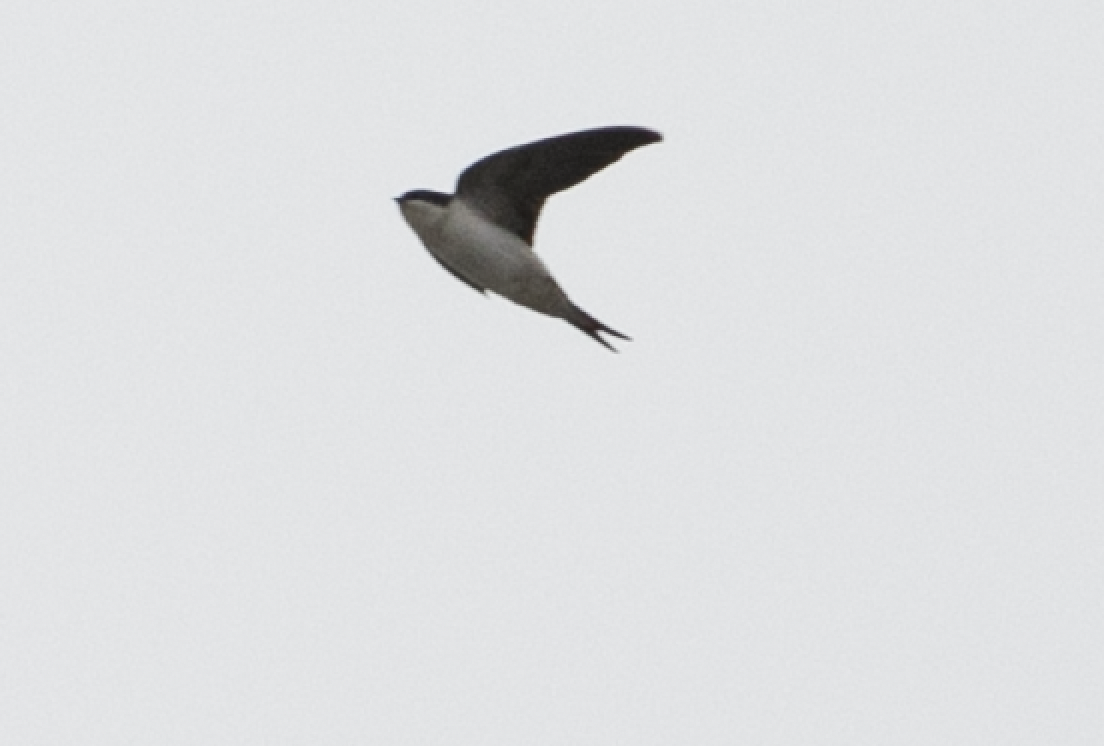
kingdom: Animalia
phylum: Chordata
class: Aves
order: Passeriformes
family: Hirundinidae
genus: Delichon
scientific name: Delichon urbicum
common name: Common house martin
